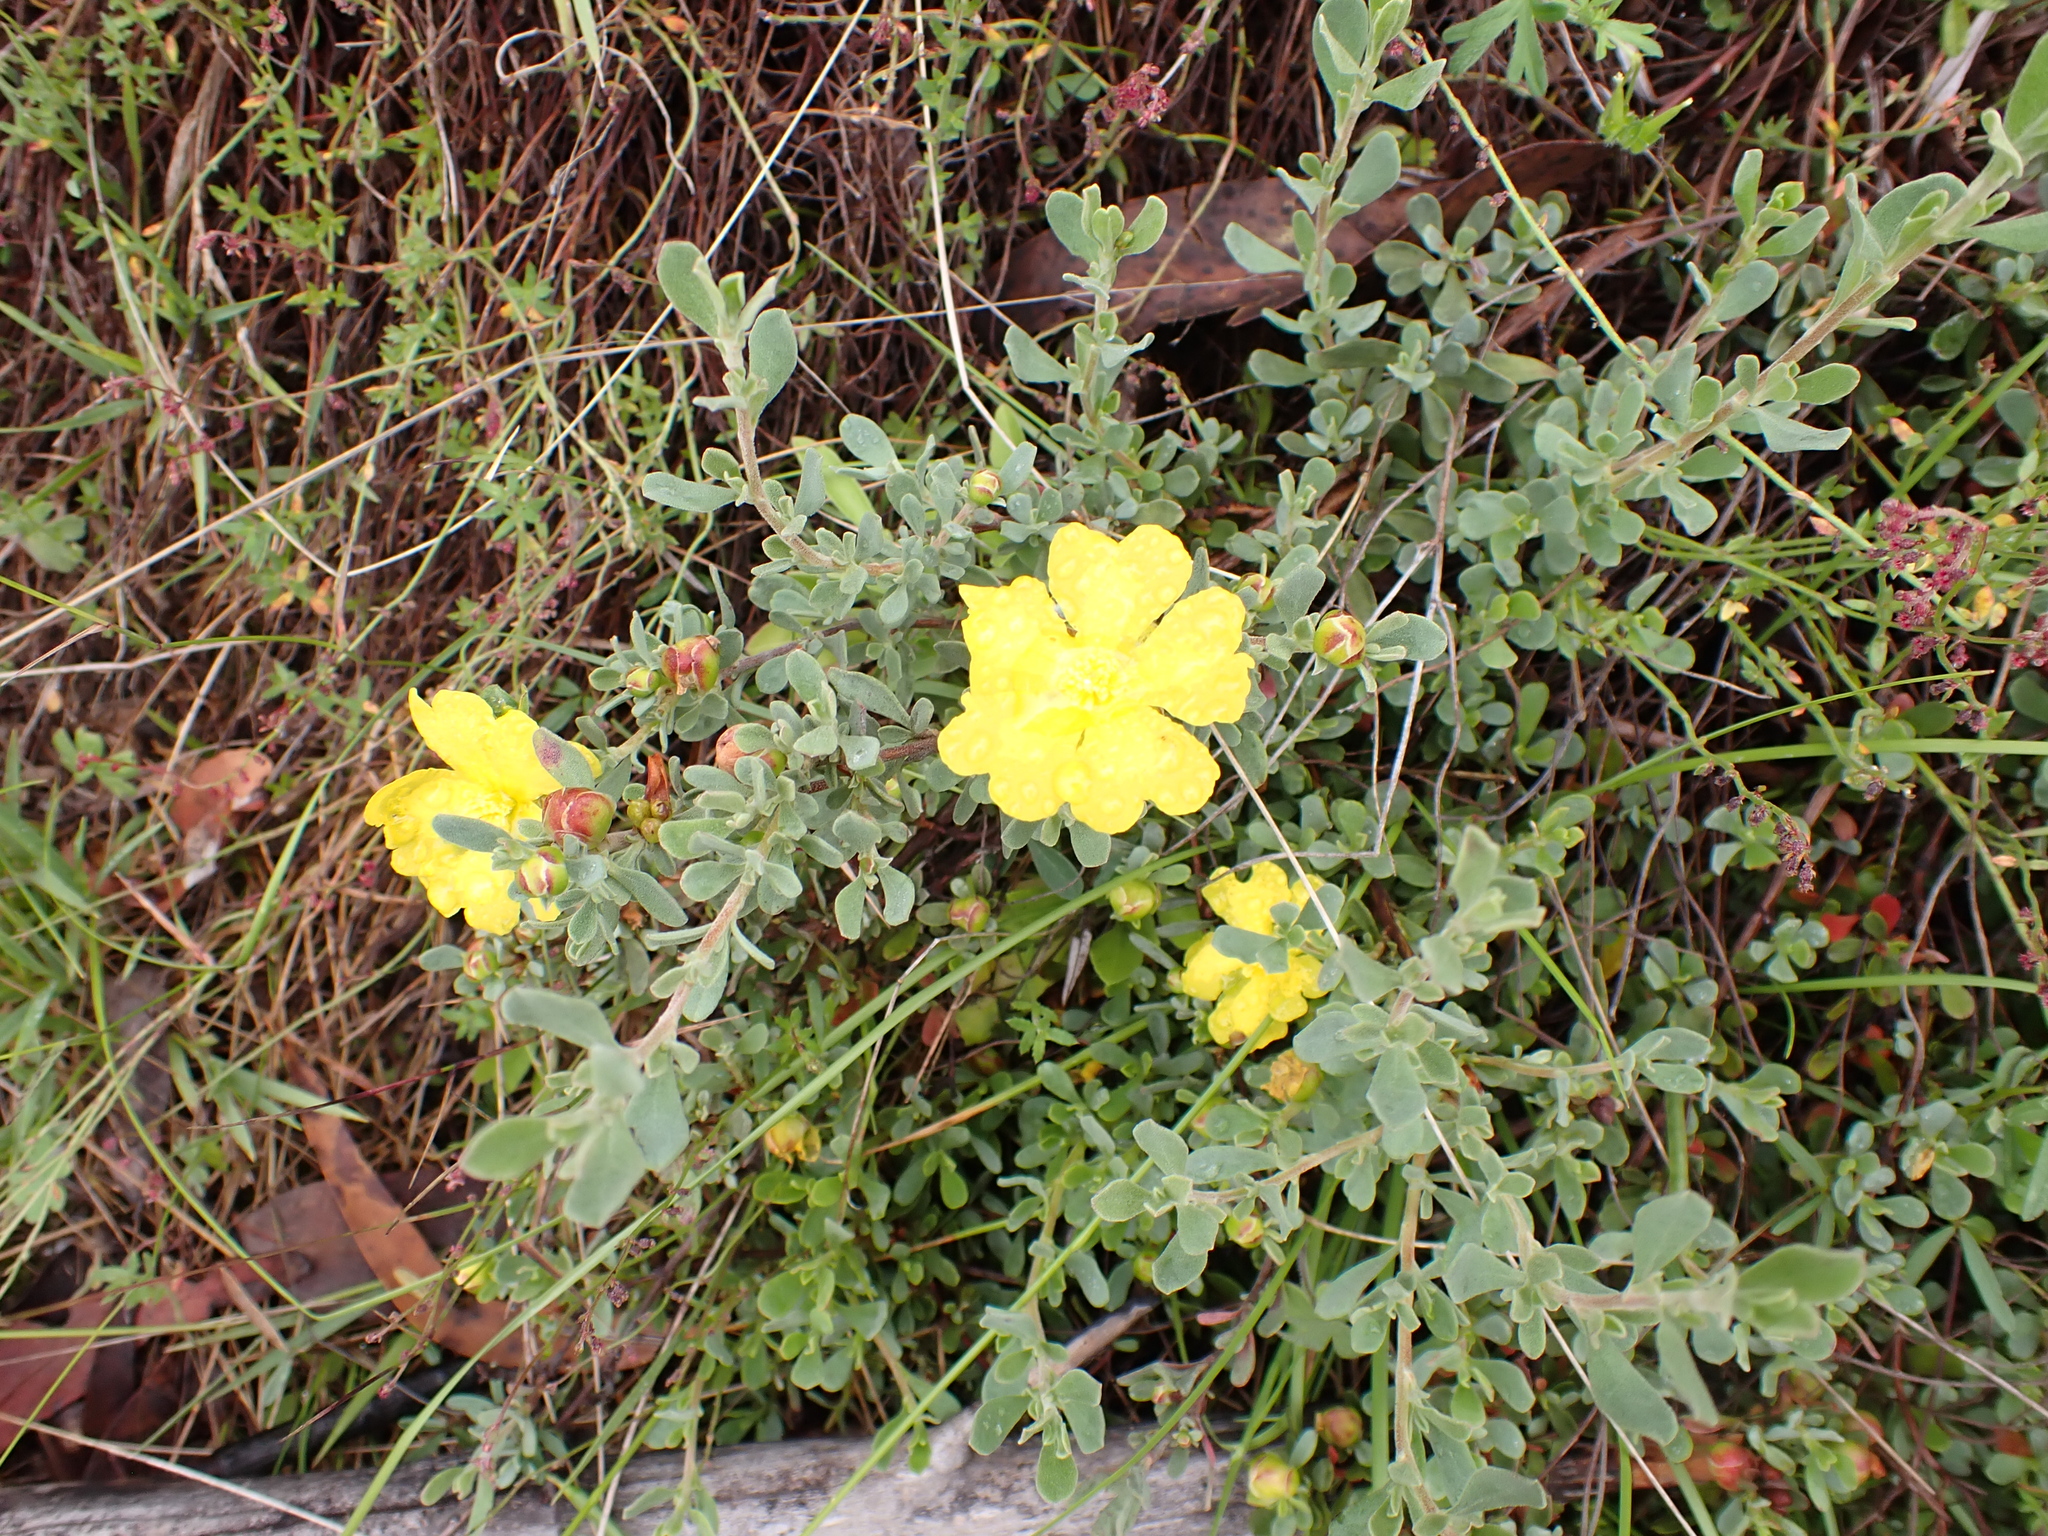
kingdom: Plantae
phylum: Tracheophyta
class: Magnoliopsida
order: Dilleniales
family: Dilleniaceae
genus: Hibbertia
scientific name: Hibbertia obtusifolia
